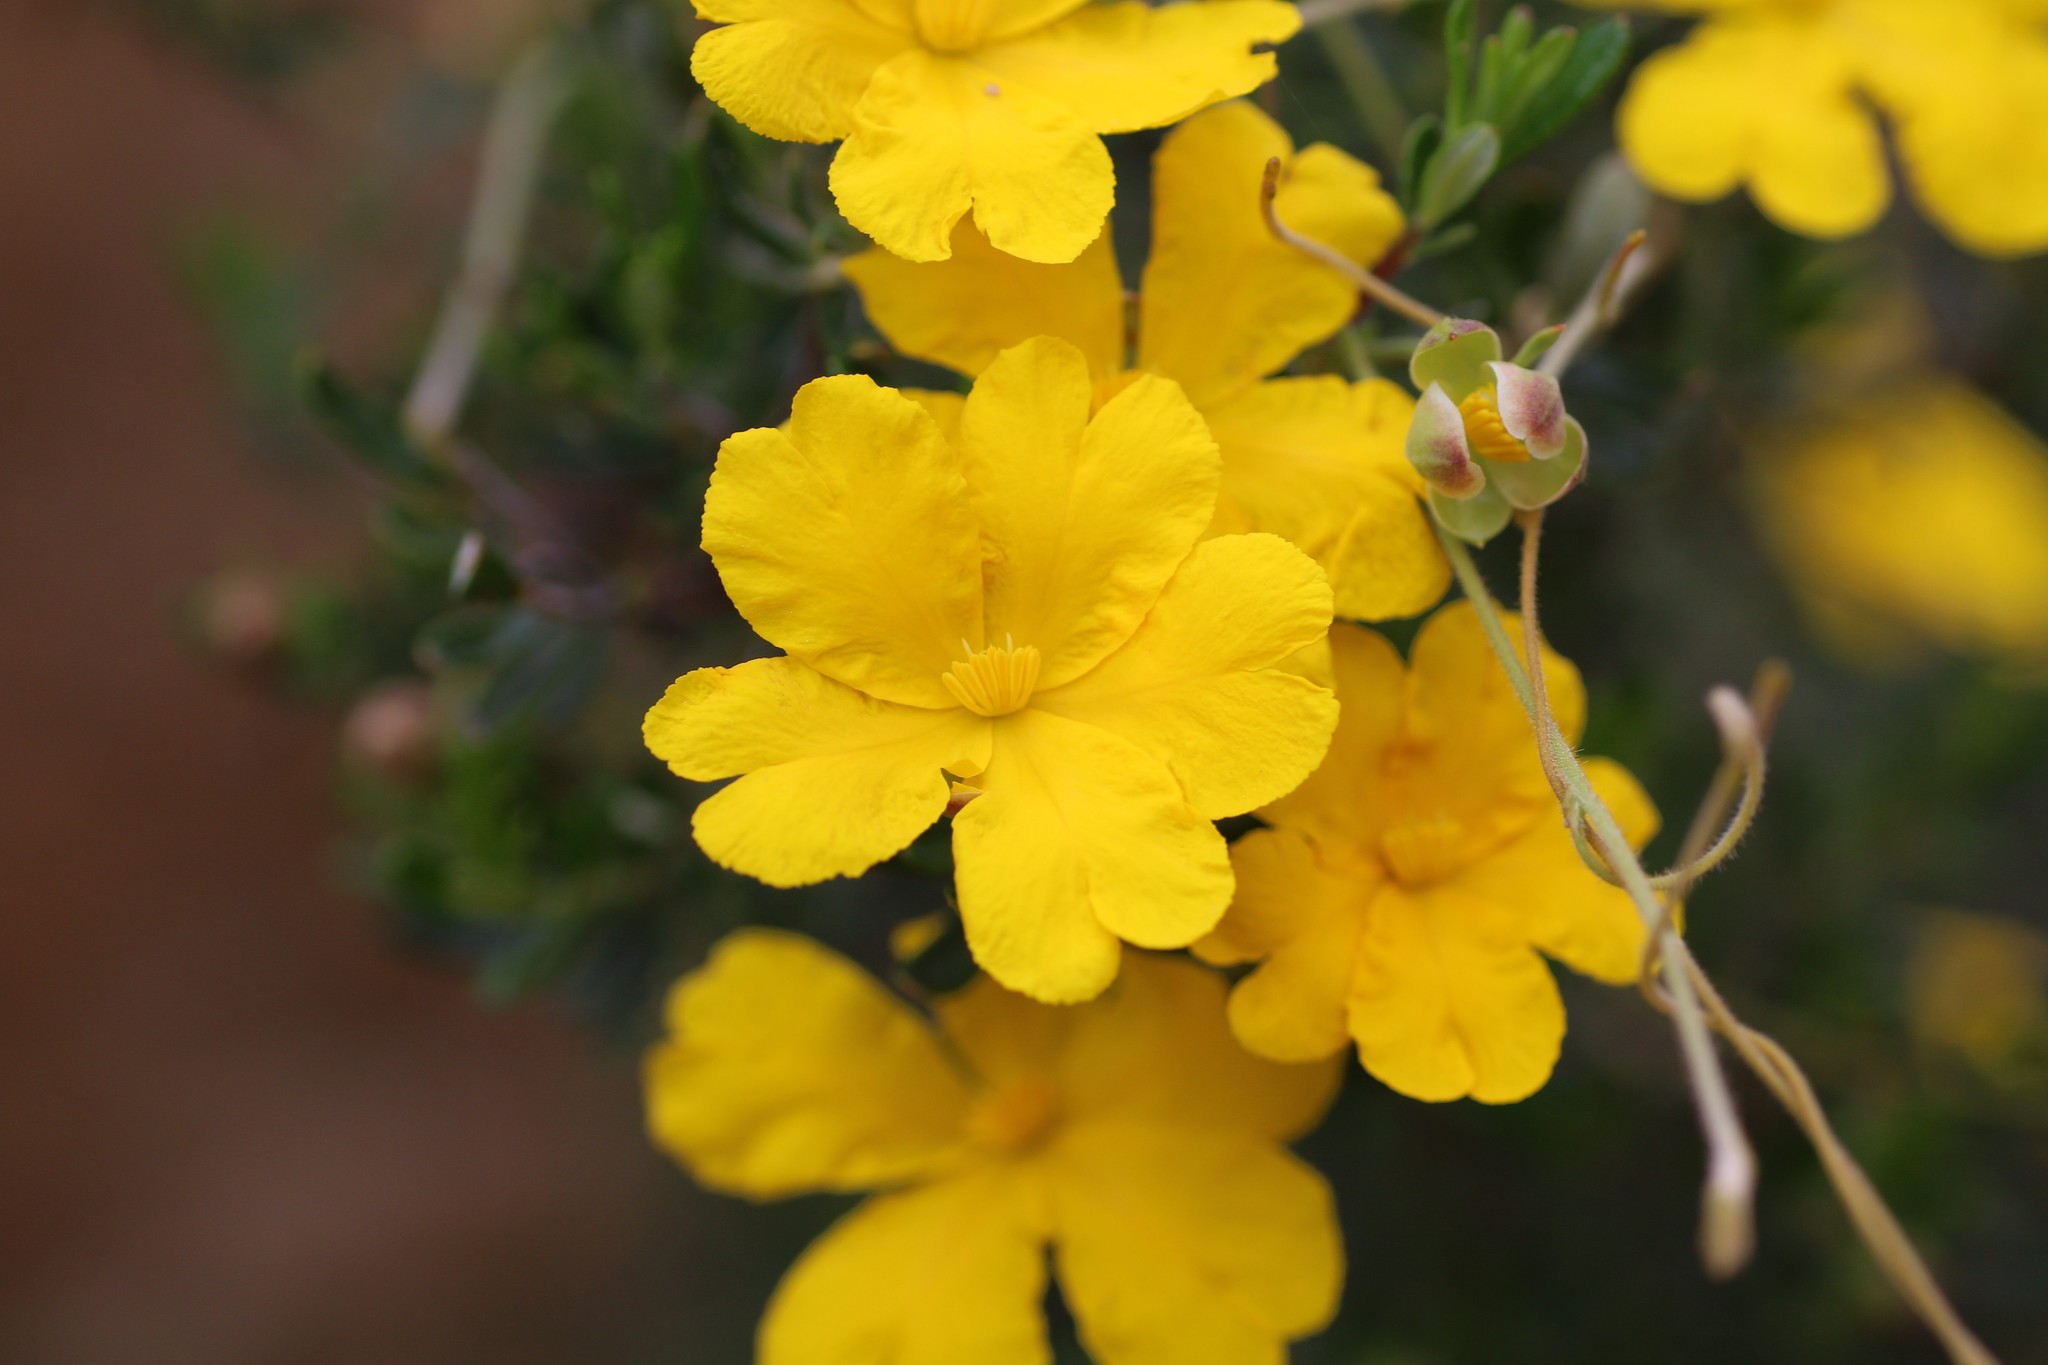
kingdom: Plantae
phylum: Tracheophyta
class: Magnoliopsida
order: Dilleniales
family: Dilleniaceae
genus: Hibbertia
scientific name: Hibbertia hypericoides
